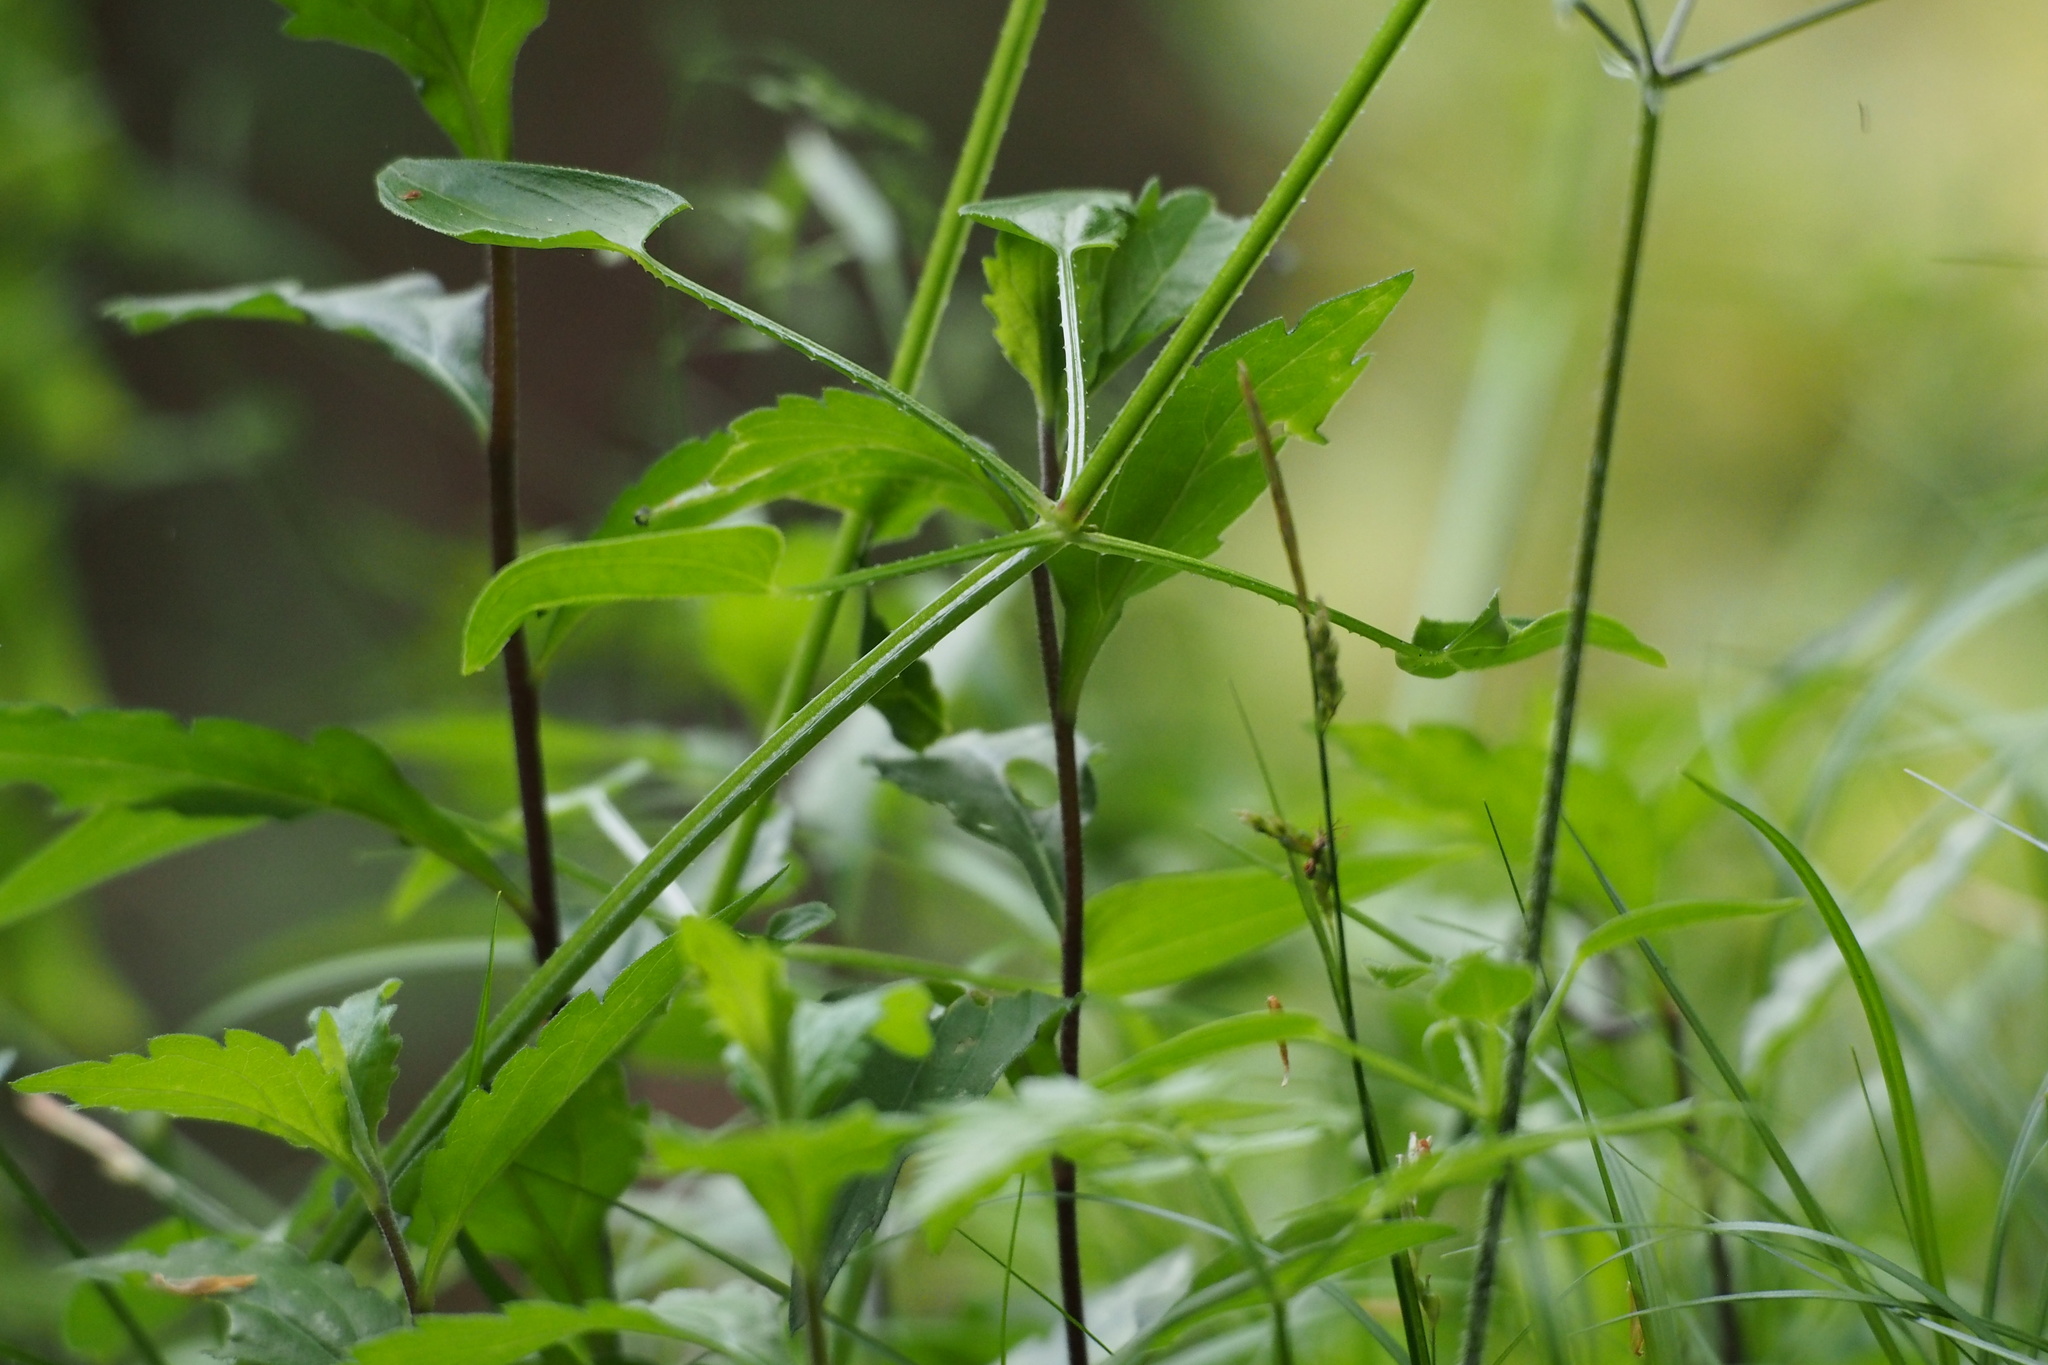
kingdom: Plantae
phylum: Tracheophyta
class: Magnoliopsida
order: Gentianales
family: Rubiaceae
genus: Rubia
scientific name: Rubia argyi
